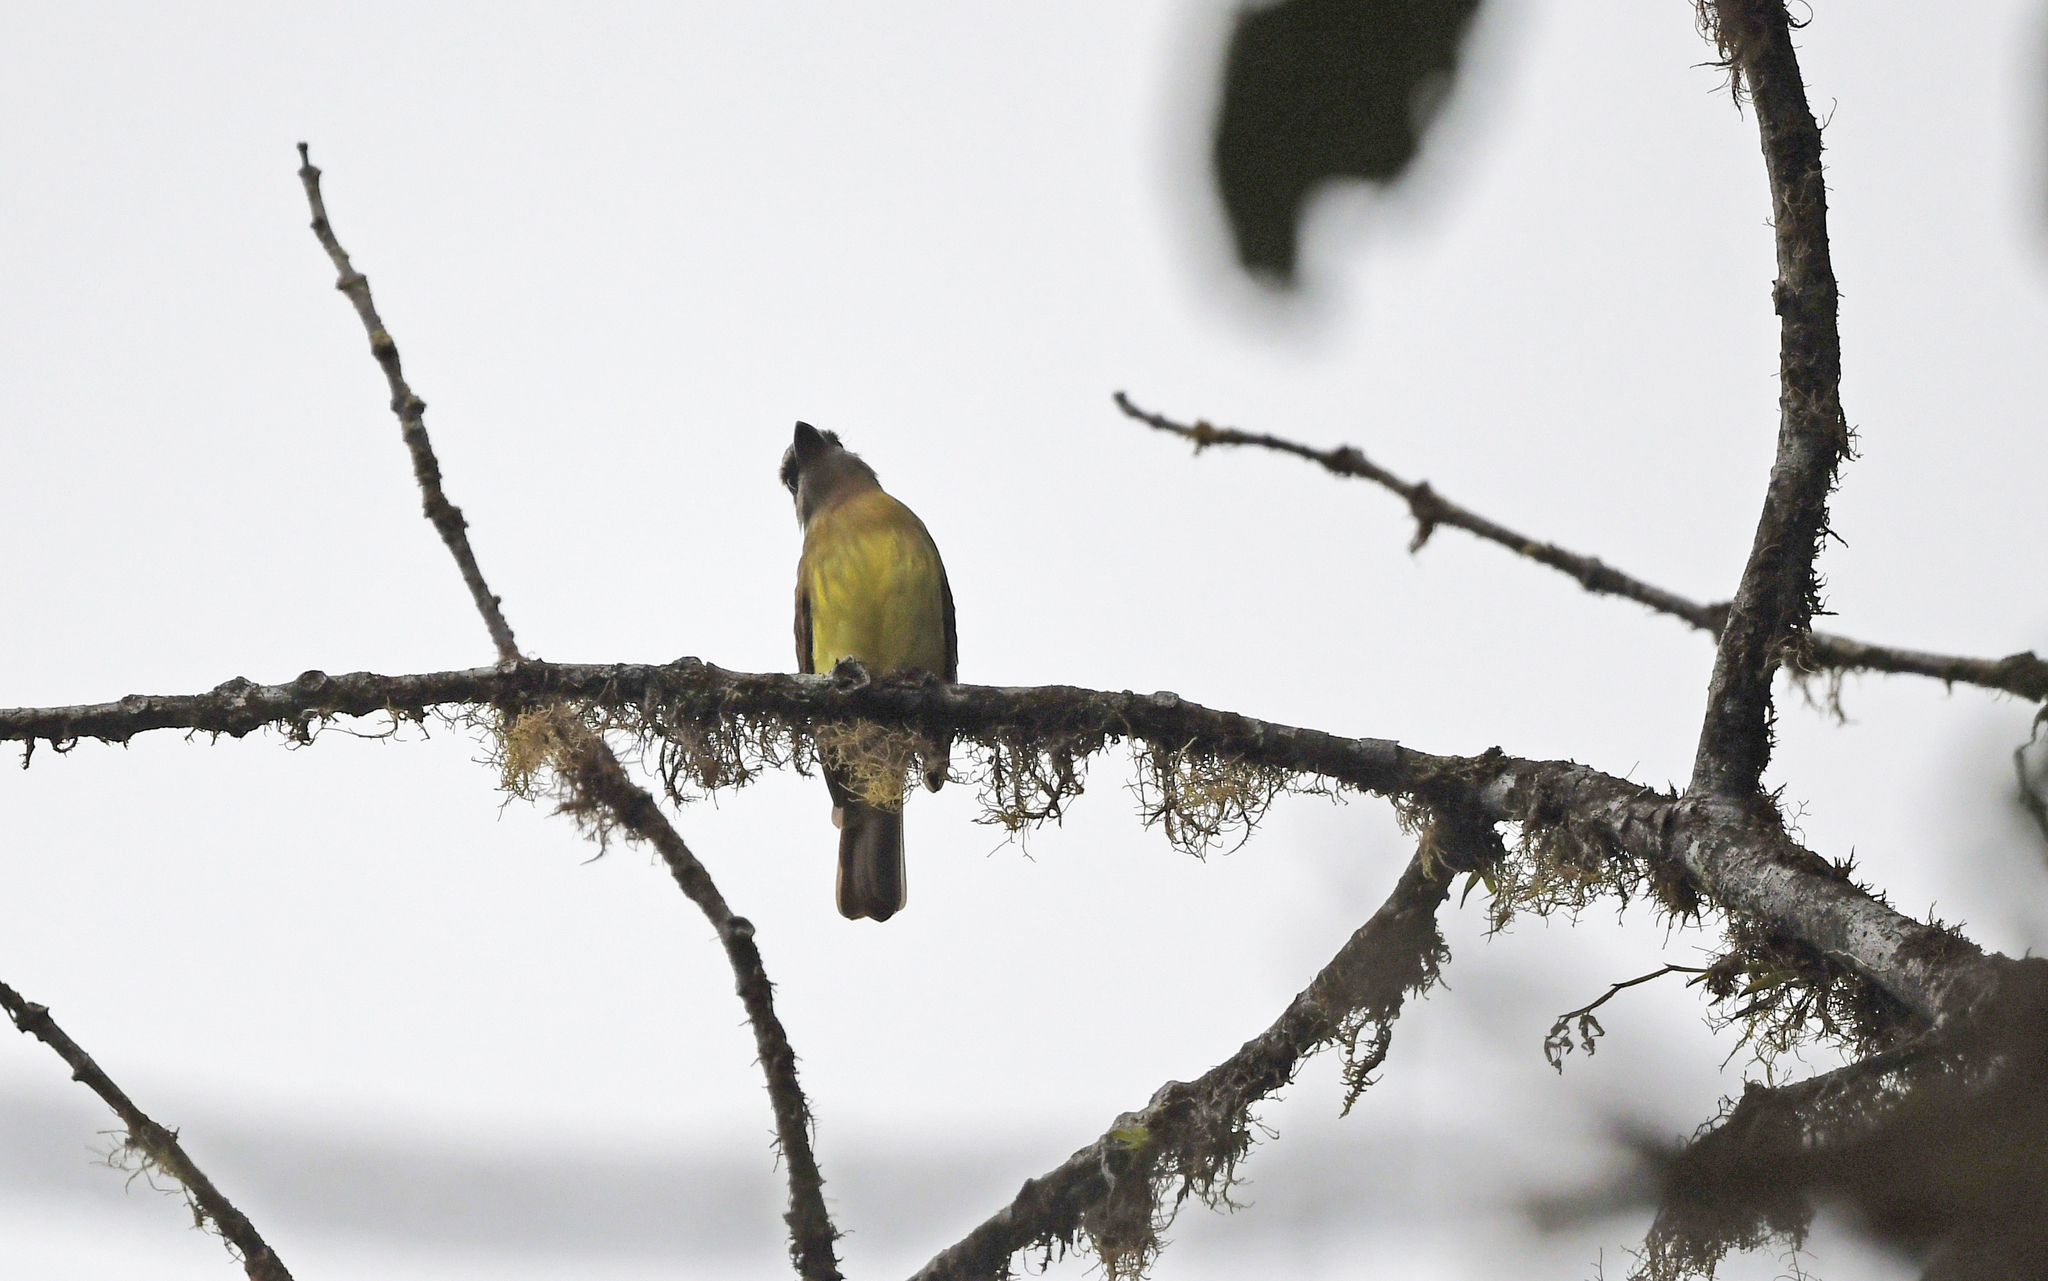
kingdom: Animalia
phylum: Chordata
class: Aves
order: Passeriformes
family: Tyrannidae
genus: Myiodynastes
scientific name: Myiodynastes hemichrysus
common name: Golden-bellied flycatcher
